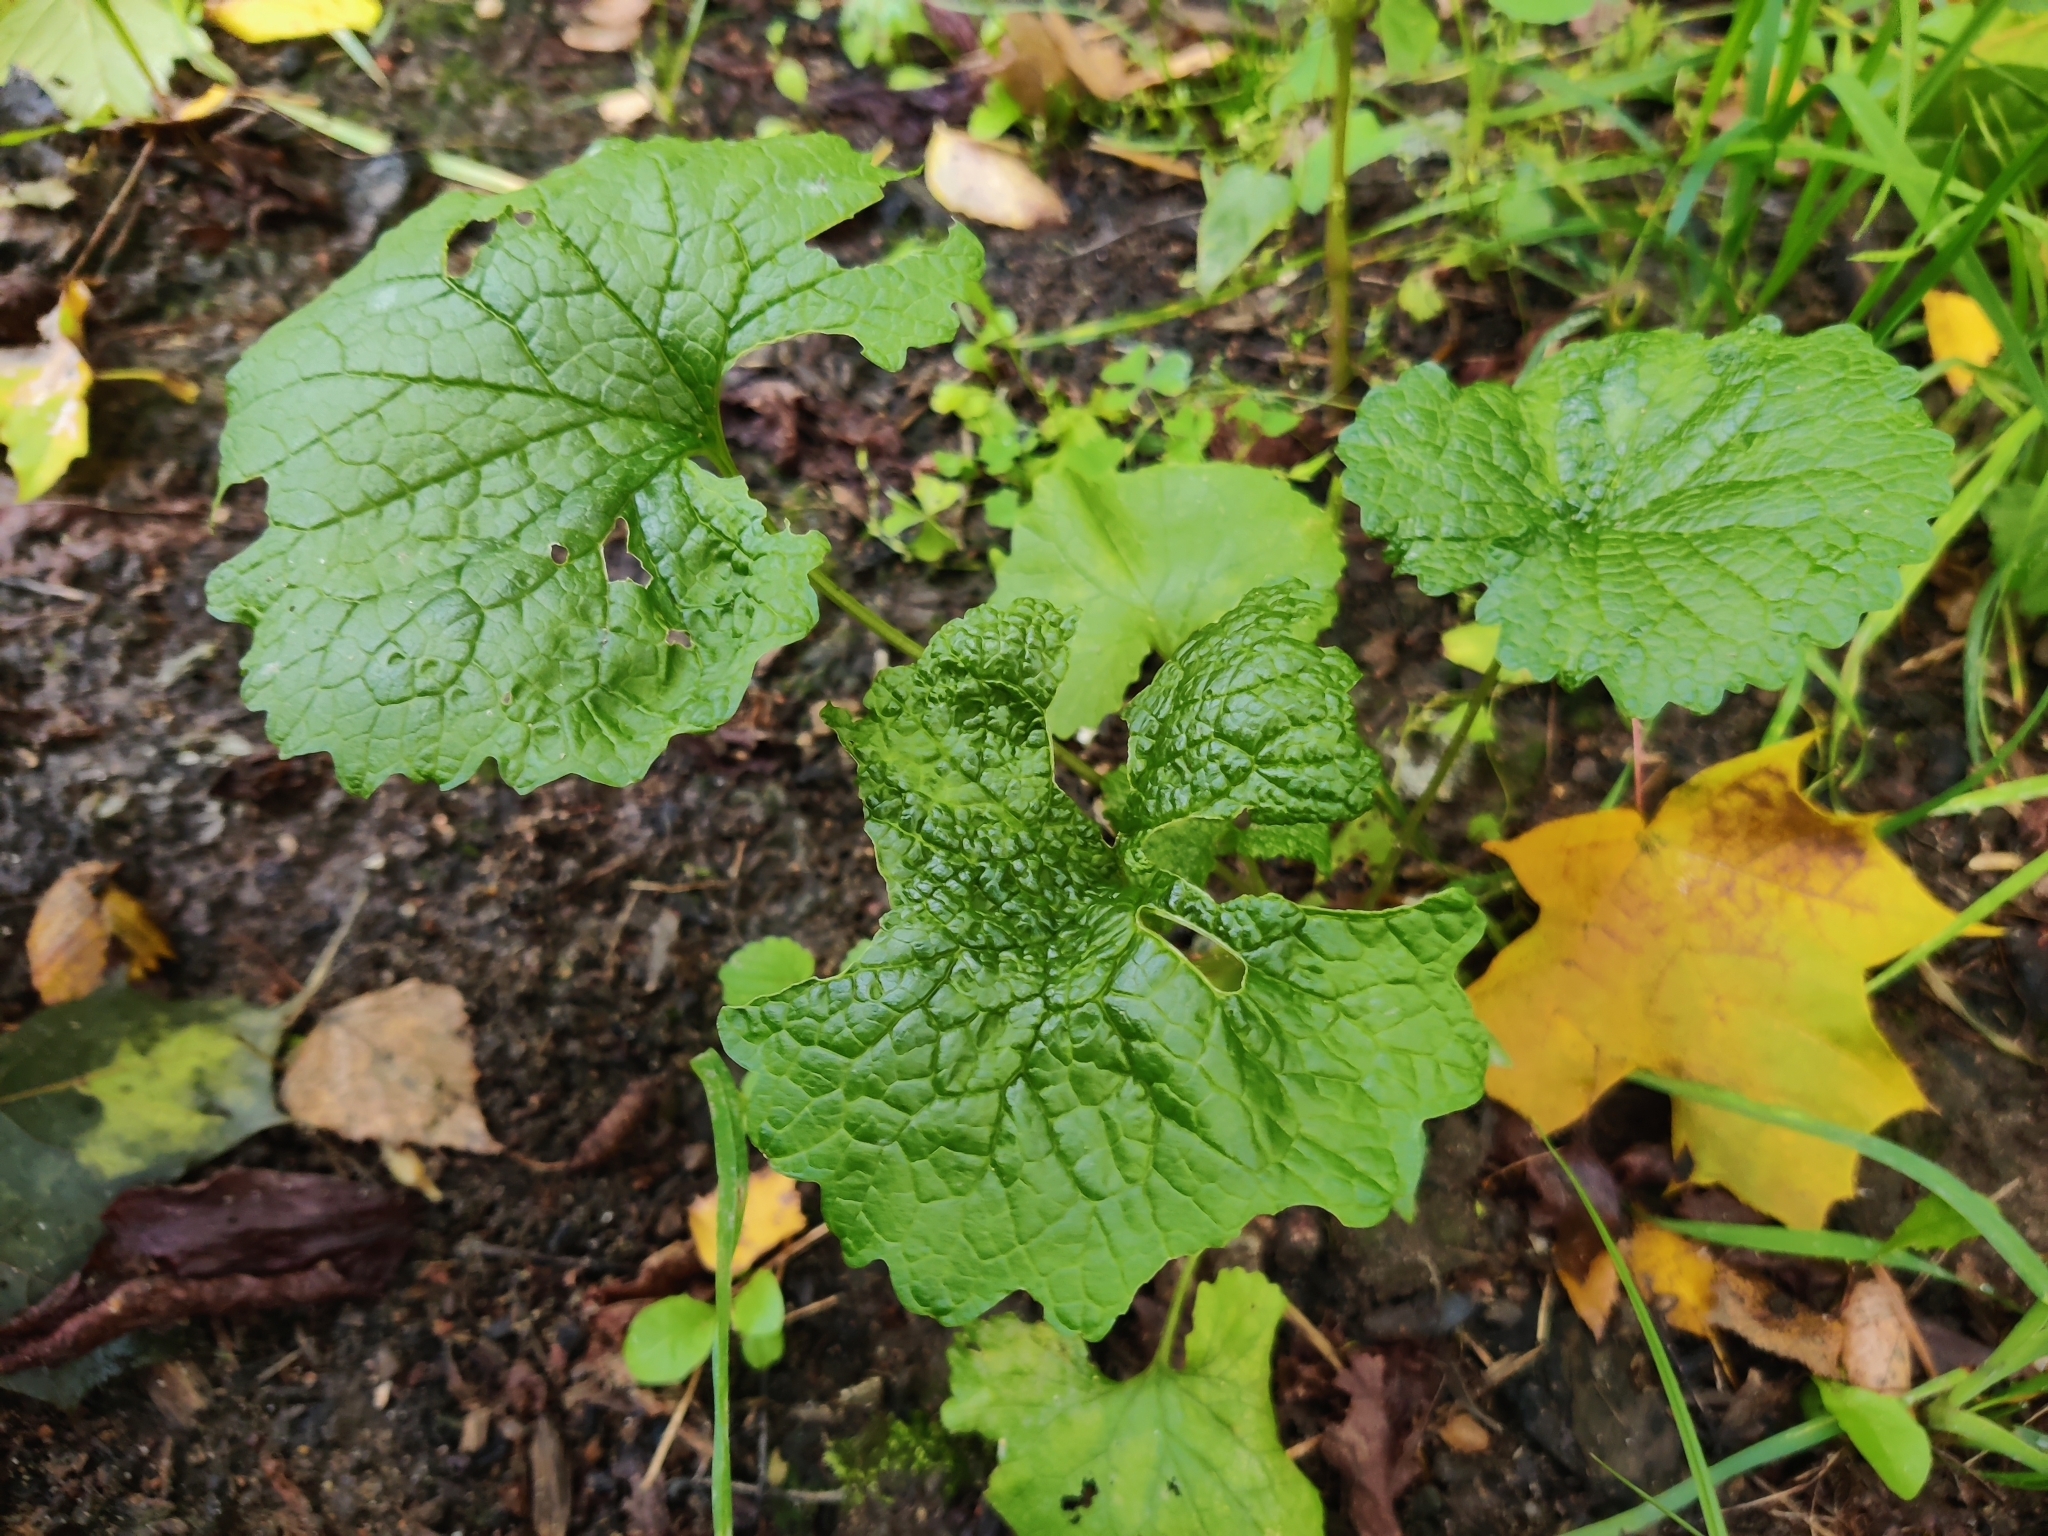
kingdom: Plantae
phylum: Tracheophyta
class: Magnoliopsida
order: Brassicales
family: Brassicaceae
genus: Alliaria
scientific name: Alliaria petiolata
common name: Garlic mustard
